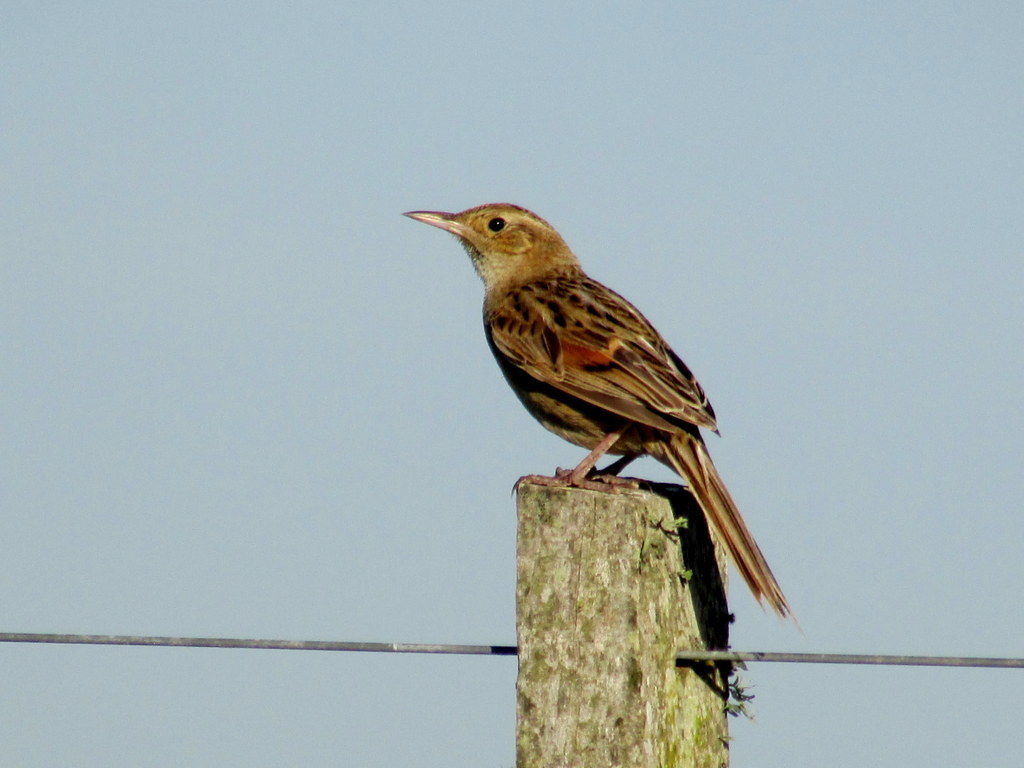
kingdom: Animalia
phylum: Chordata
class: Aves
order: Passeriformes
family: Furnariidae
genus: Asthenes
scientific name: Asthenes hudsoni
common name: Hudson's canastero
